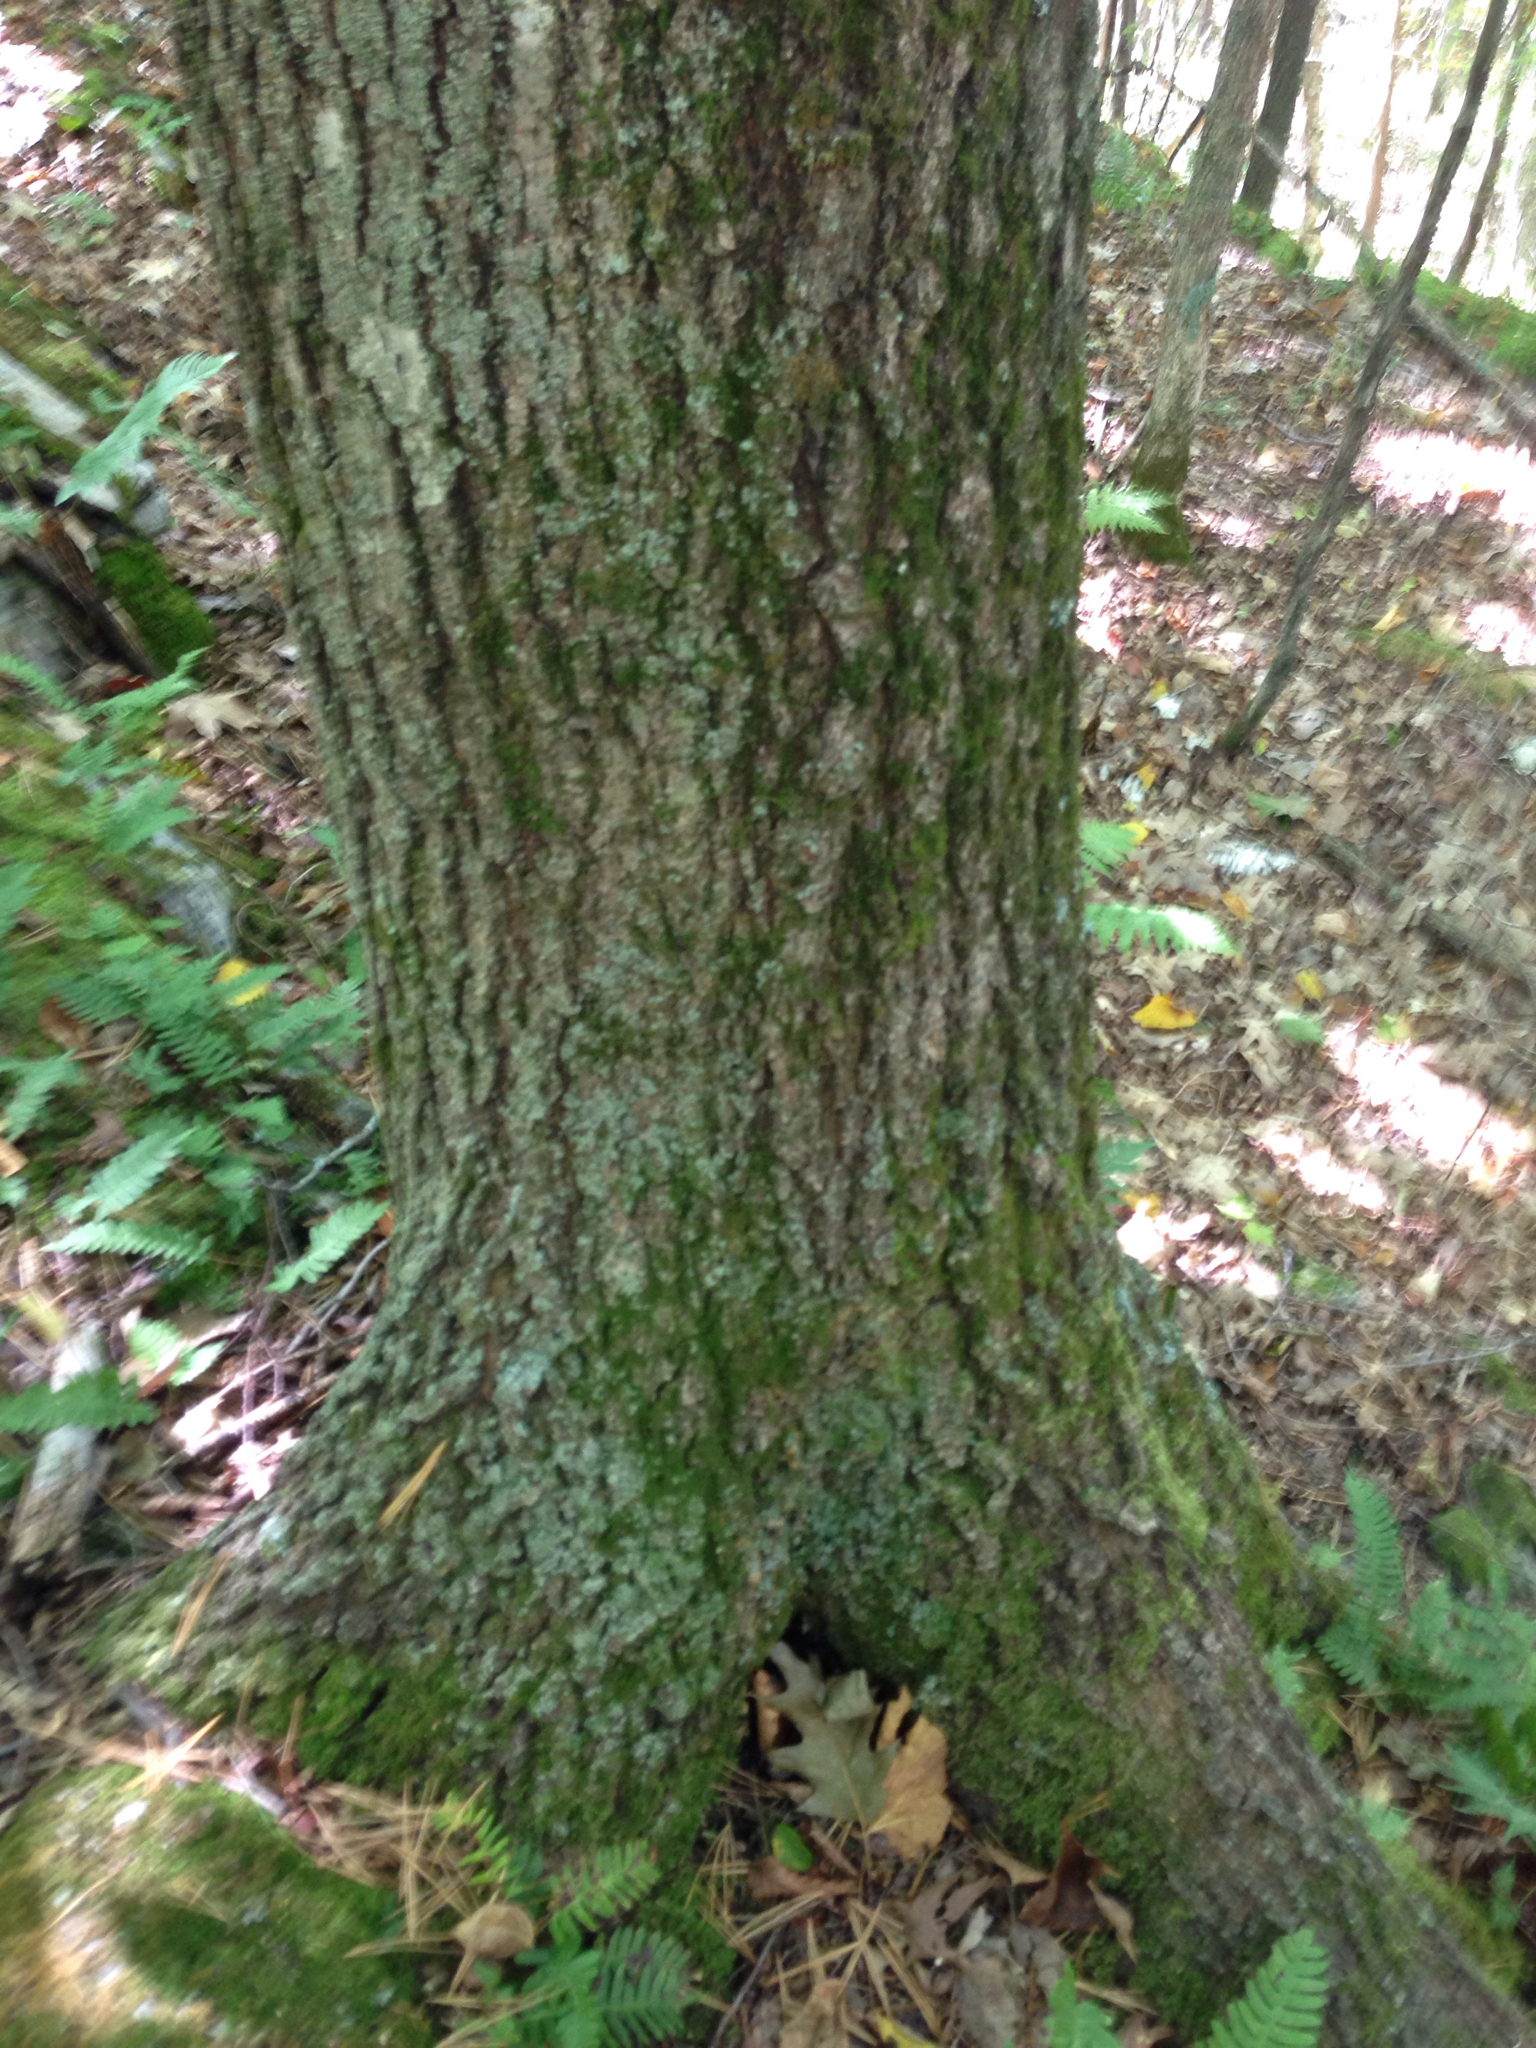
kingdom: Plantae
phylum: Tracheophyta
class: Magnoliopsida
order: Fagales
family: Fagaceae
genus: Quercus
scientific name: Quercus rubra
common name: Red oak
